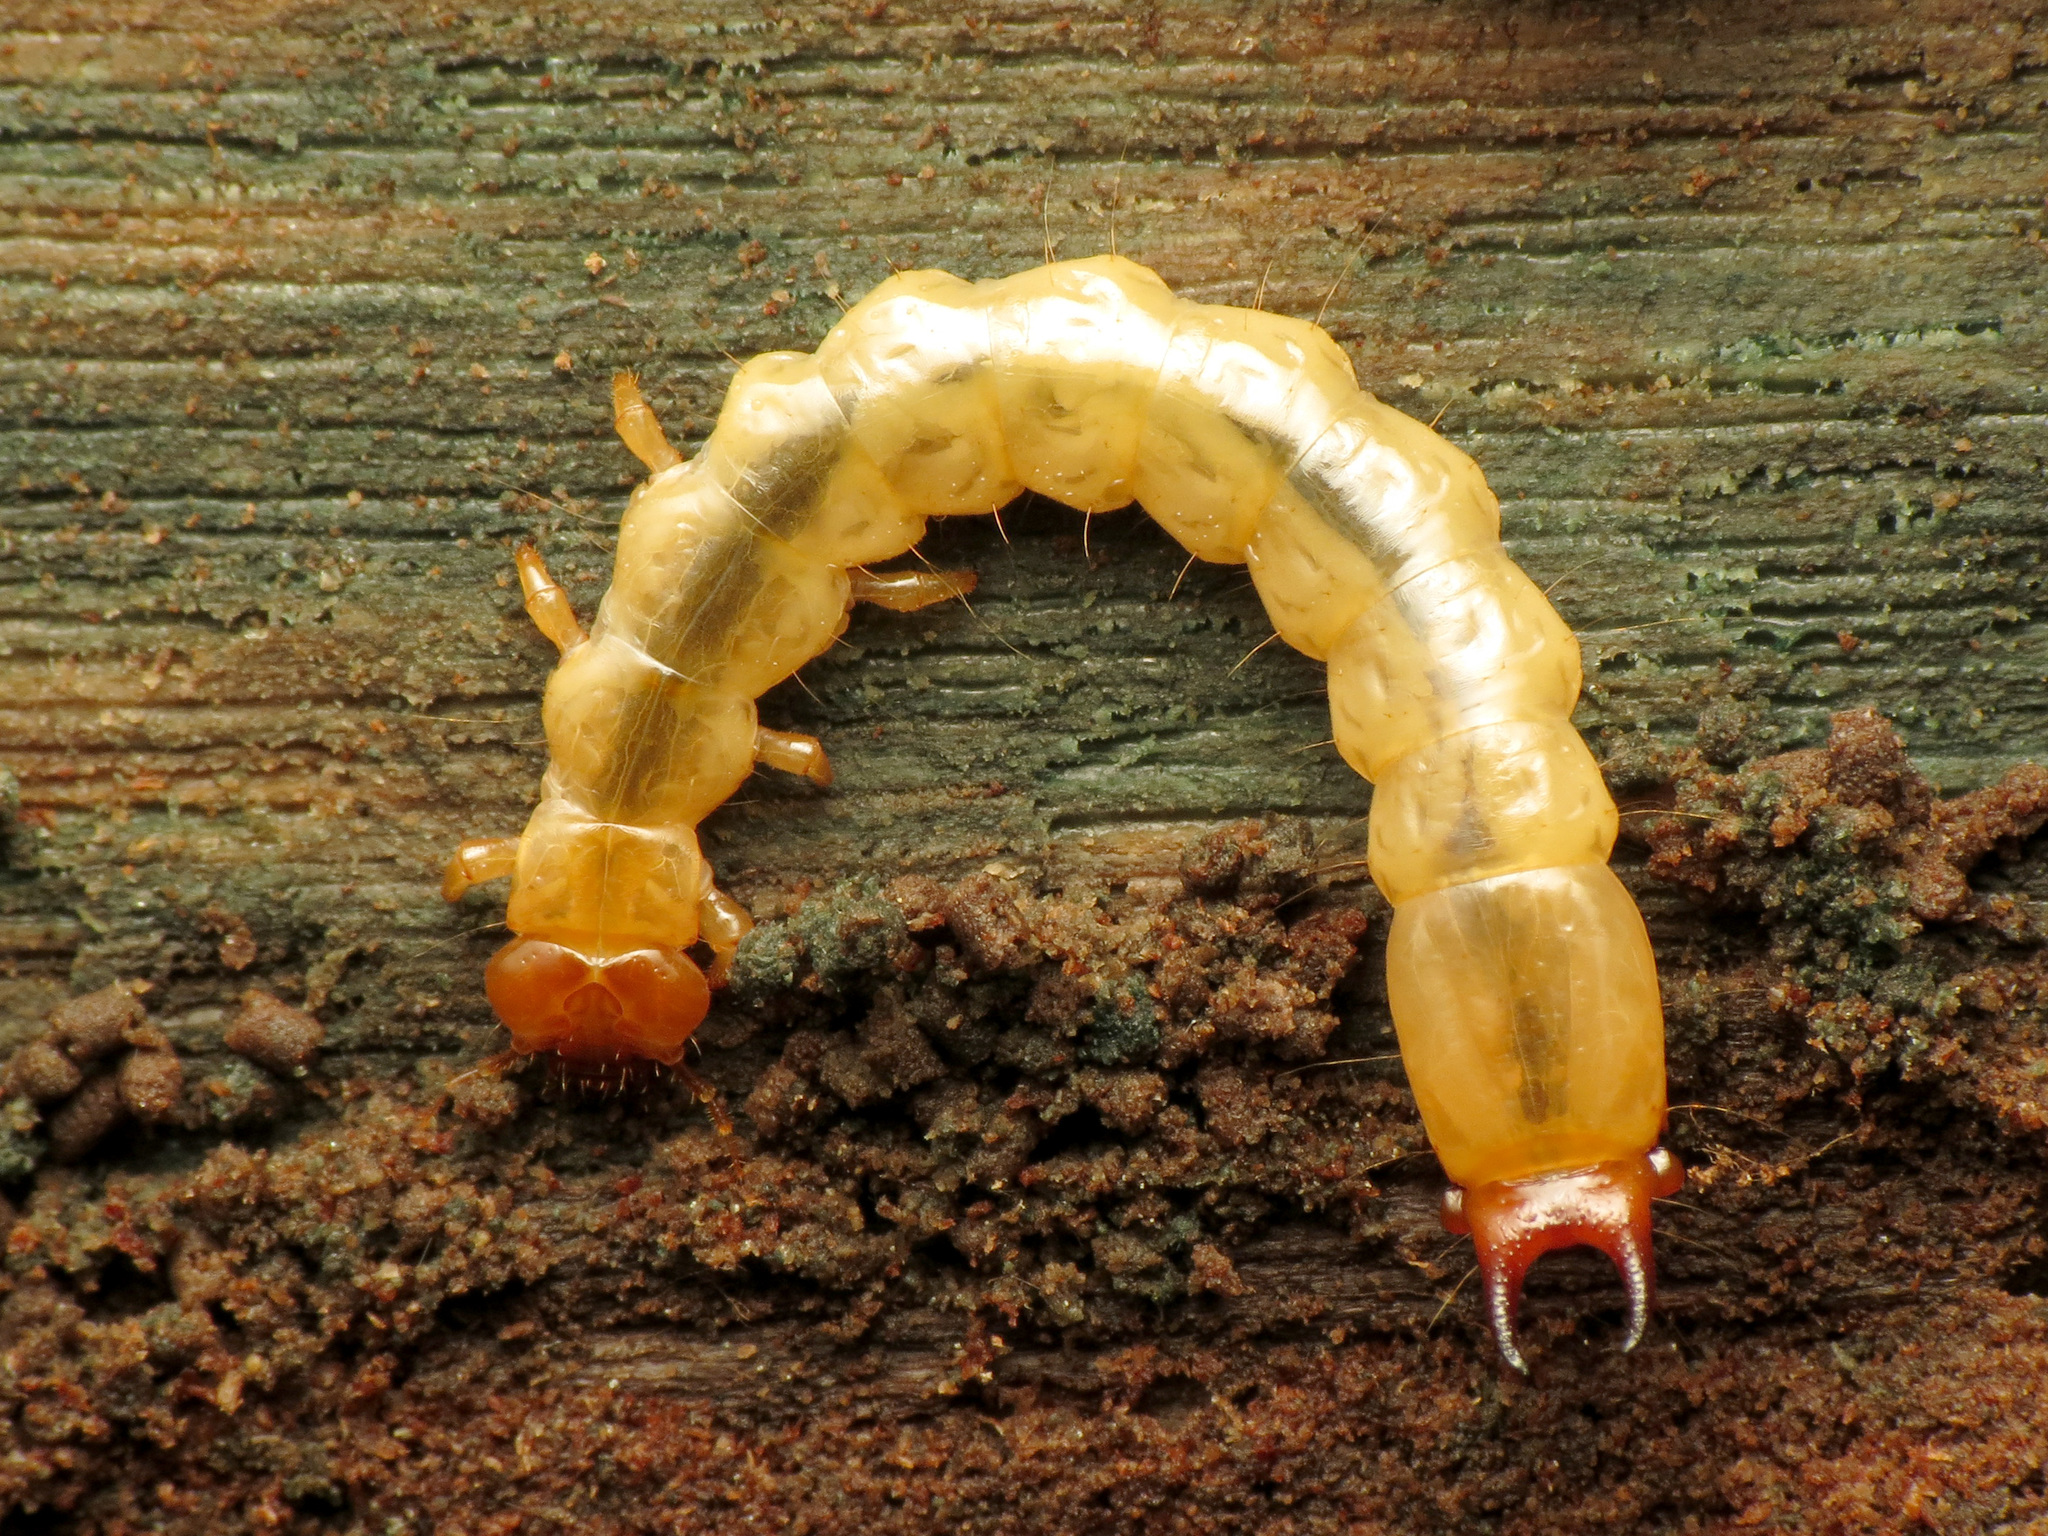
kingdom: Animalia
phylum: Arthropoda
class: Insecta
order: Coleoptera
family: Pyrochroidae
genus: Dendroides
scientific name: Dendroides canadensis
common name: Canada fire-colored beetle
